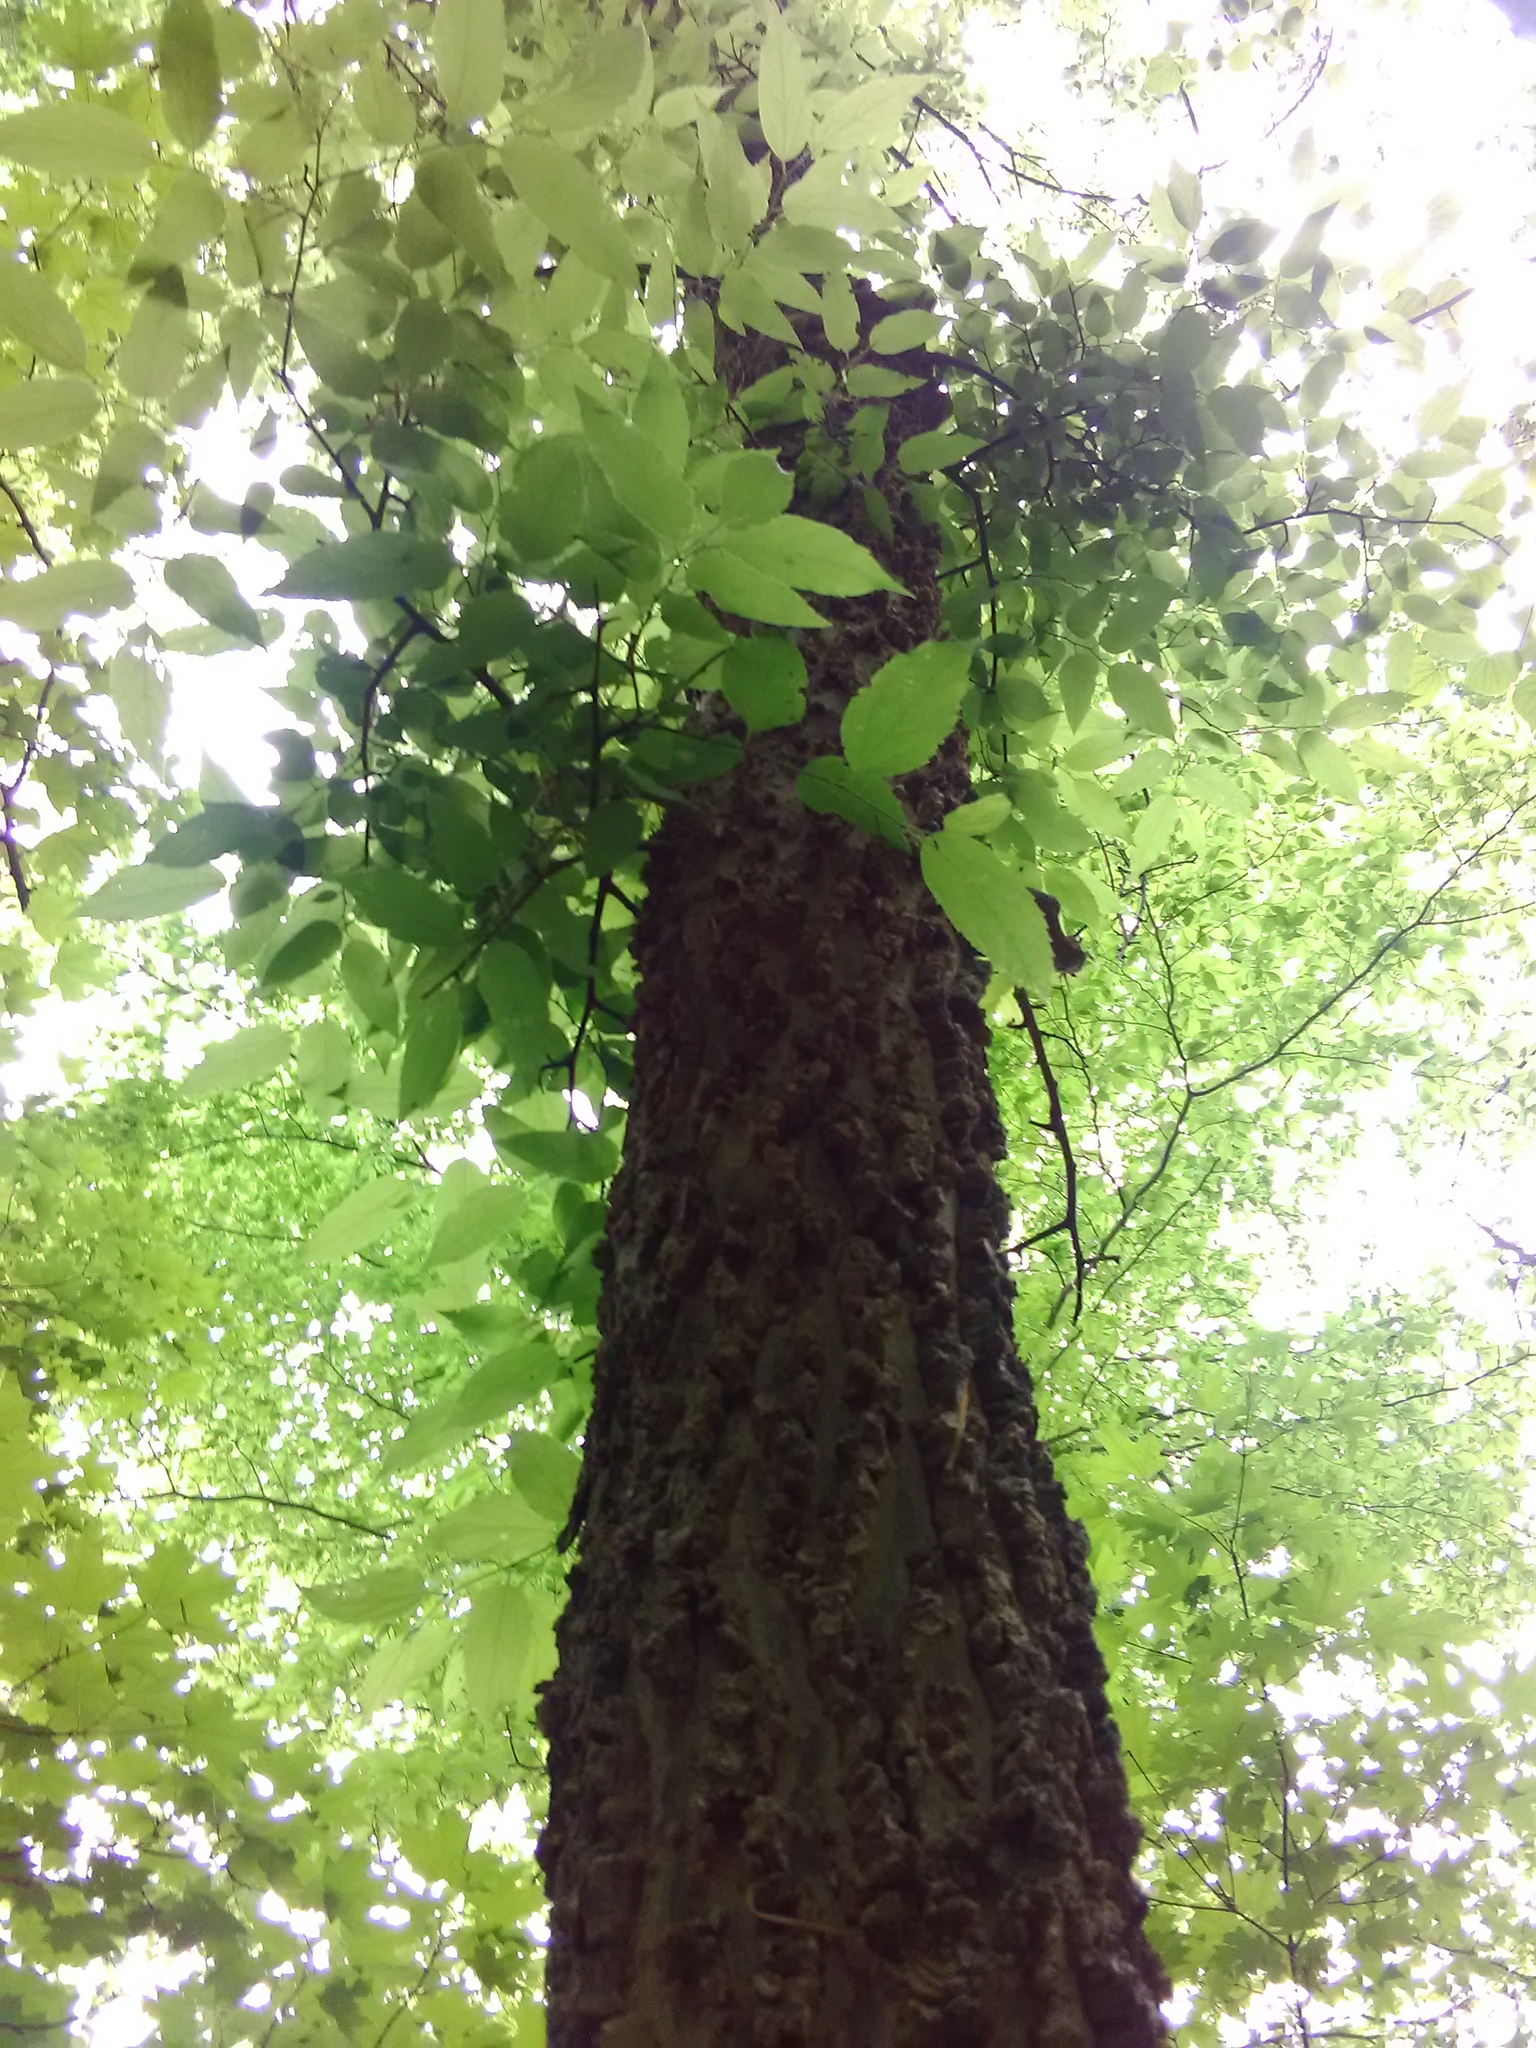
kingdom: Plantae
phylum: Tracheophyta
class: Magnoliopsida
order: Rosales
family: Cannabaceae
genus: Celtis
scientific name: Celtis laevigata
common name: Sugarberry
